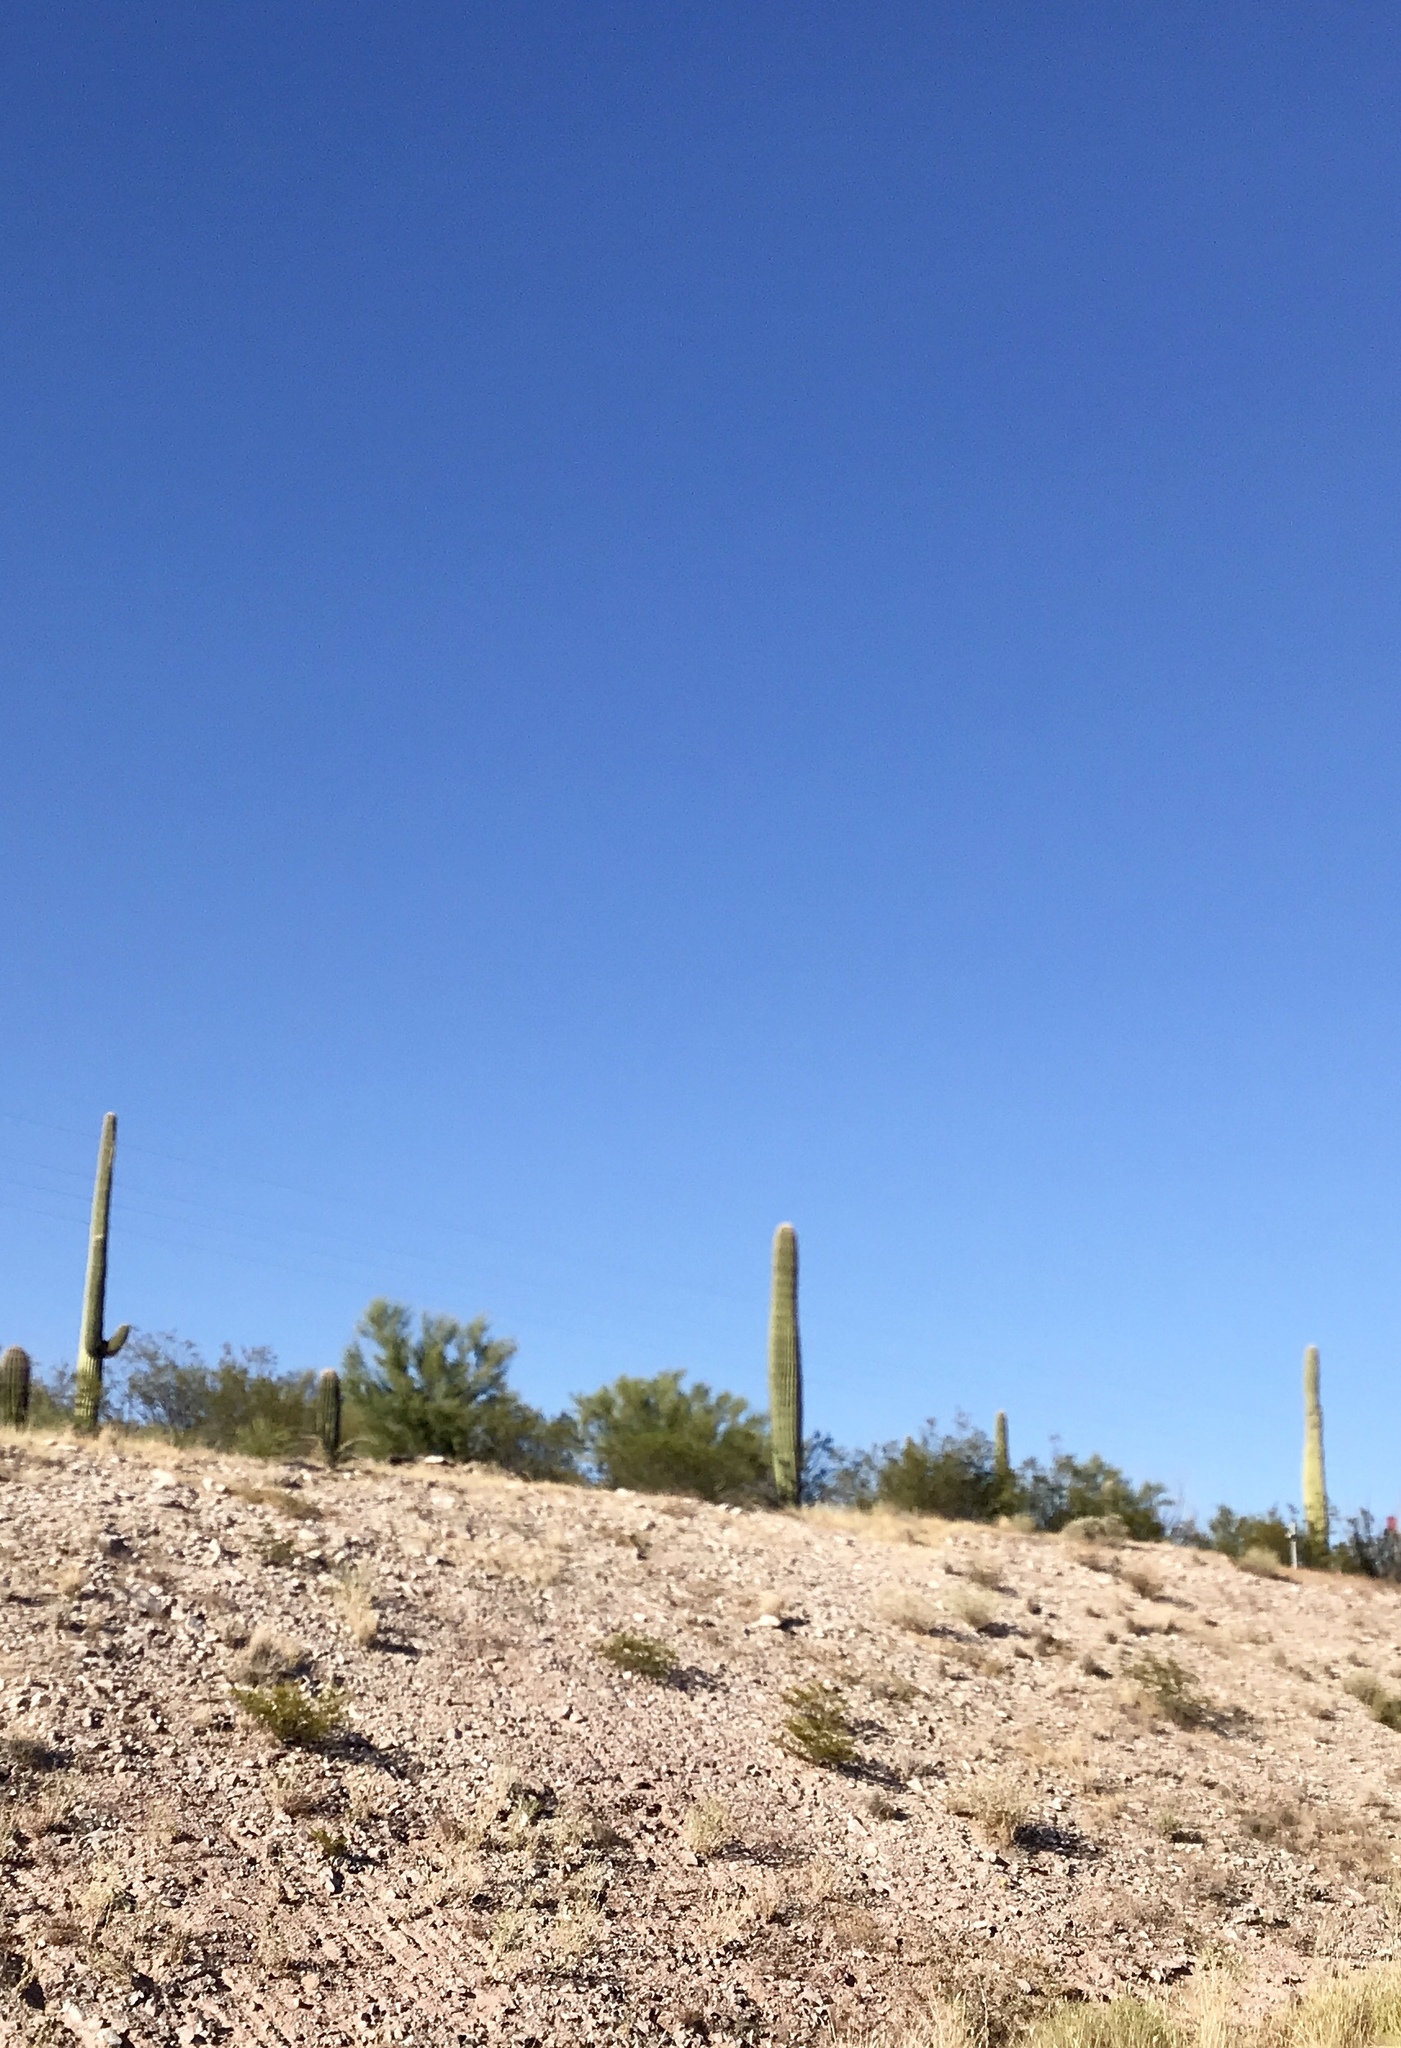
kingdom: Plantae
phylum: Tracheophyta
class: Magnoliopsida
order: Caryophyllales
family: Cactaceae
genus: Carnegiea
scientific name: Carnegiea gigantea
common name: Saguaro
